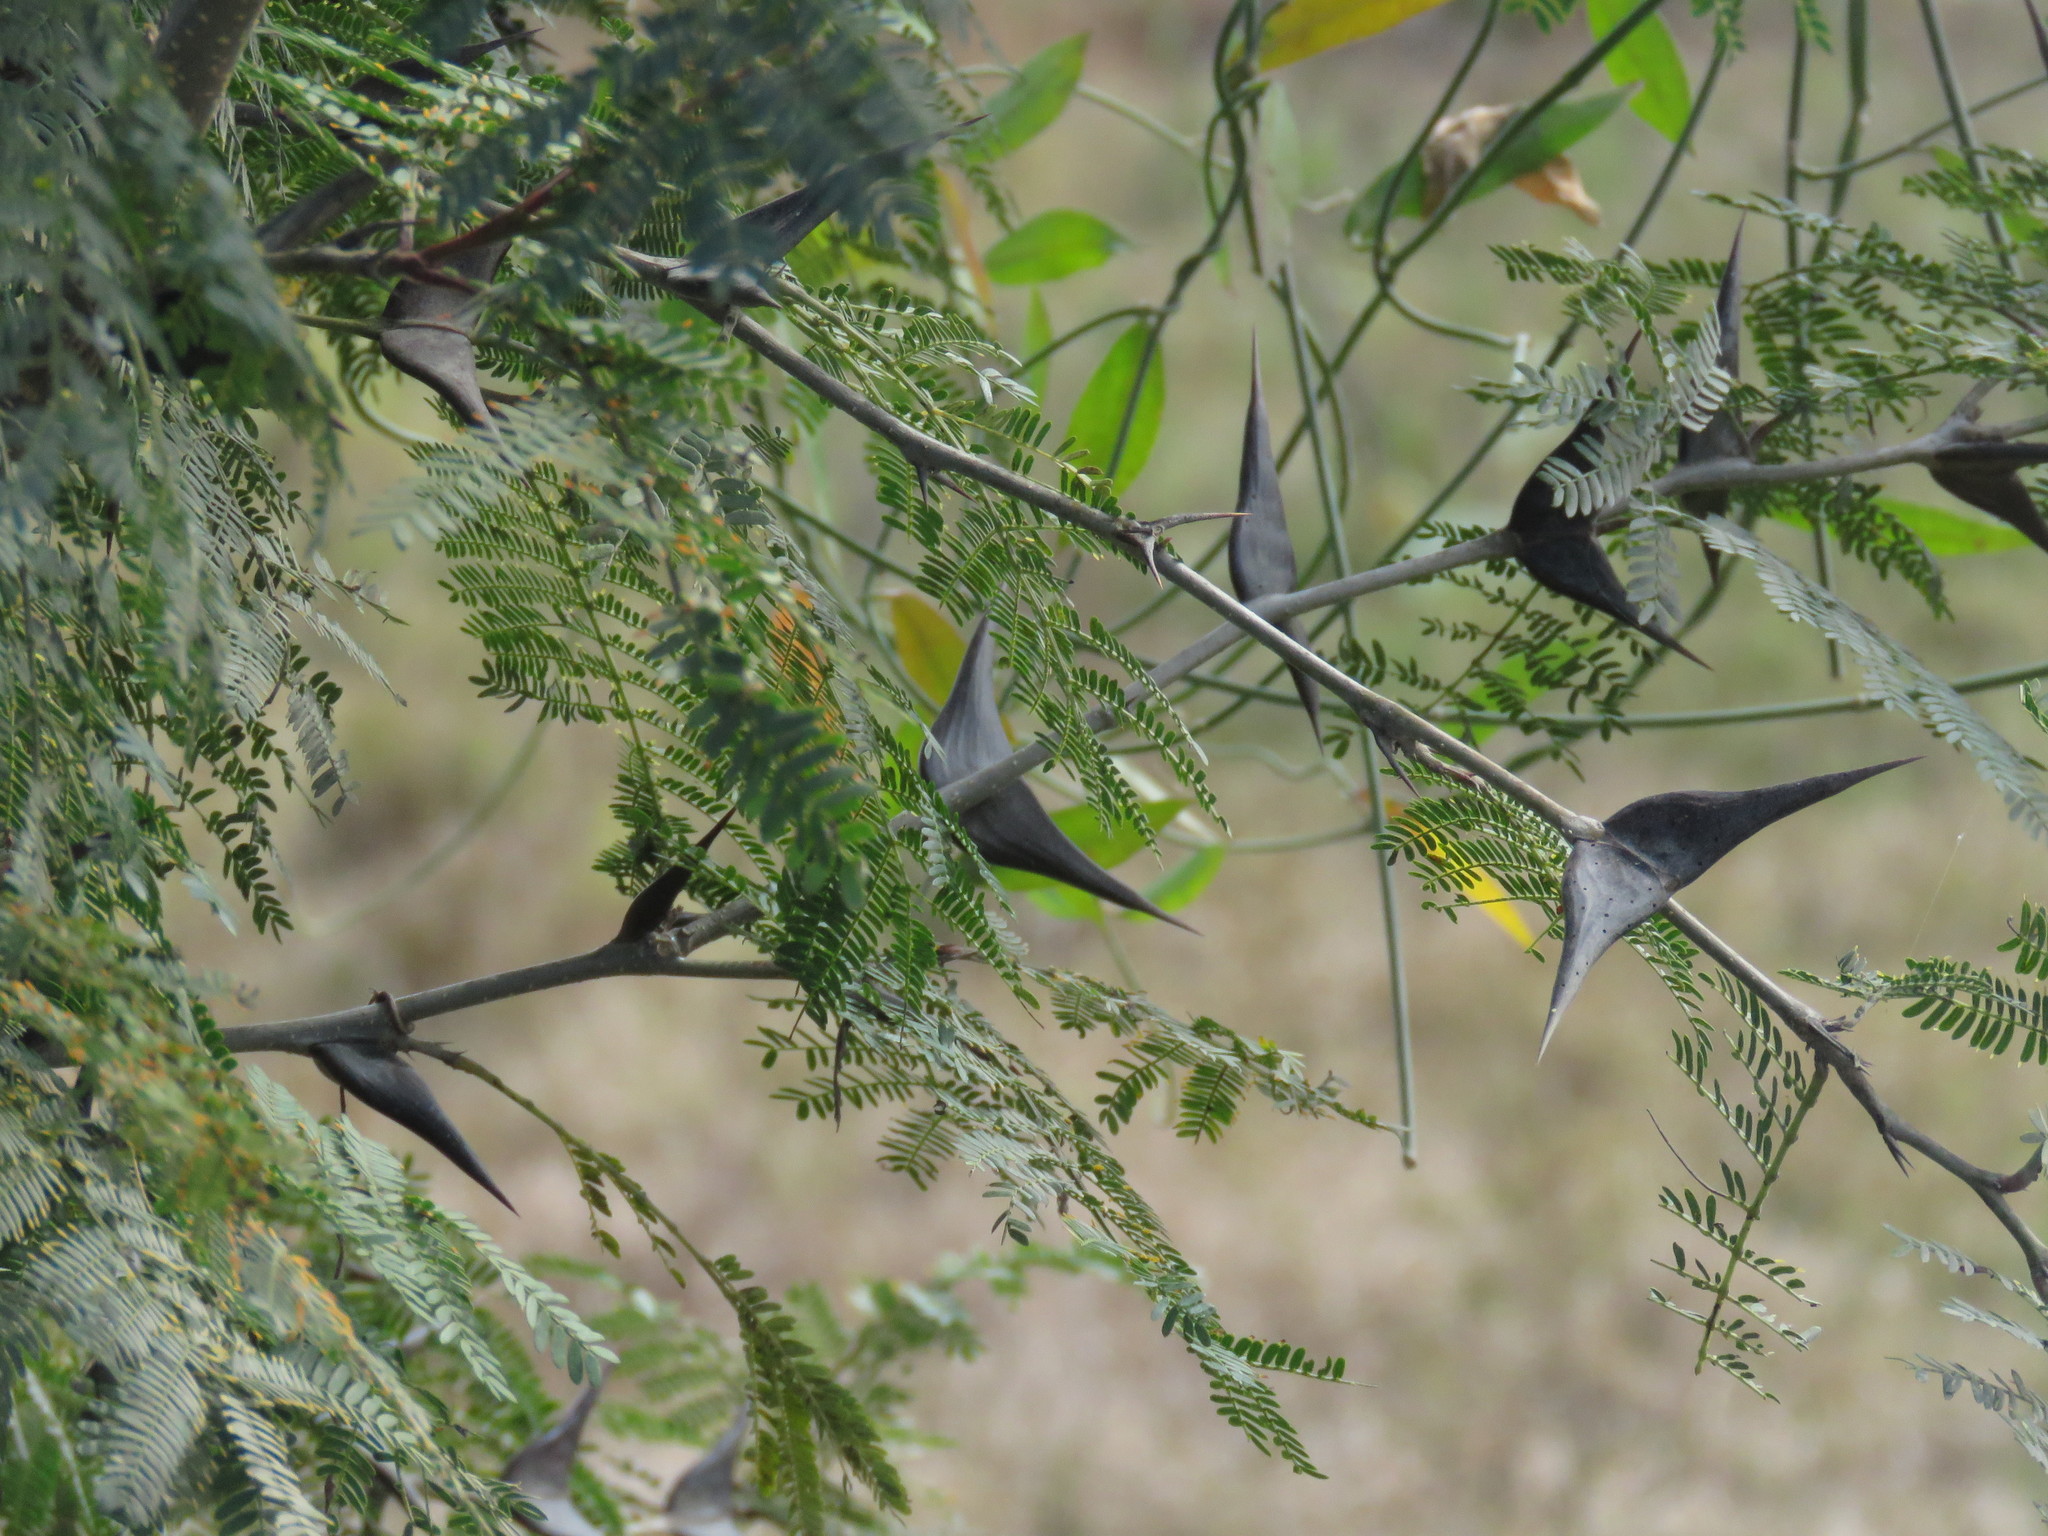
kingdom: Plantae
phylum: Tracheophyta
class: Magnoliopsida
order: Fabales
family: Fabaceae
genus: Vachellia
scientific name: Vachellia hindsii
